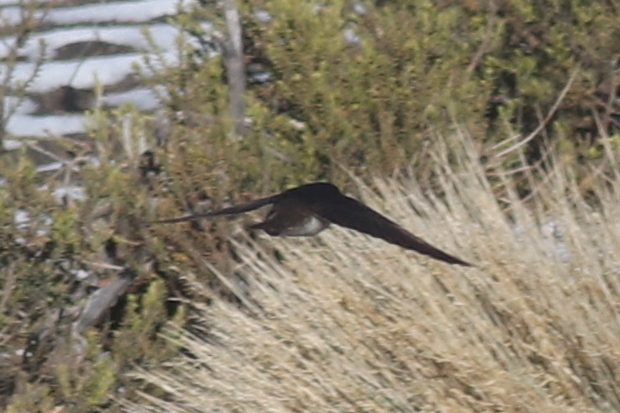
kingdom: Animalia
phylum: Chordata
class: Aves
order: Passeriformes
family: Hirundinidae
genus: Haplochelidon
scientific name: Haplochelidon andecola
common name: Andean swallow
